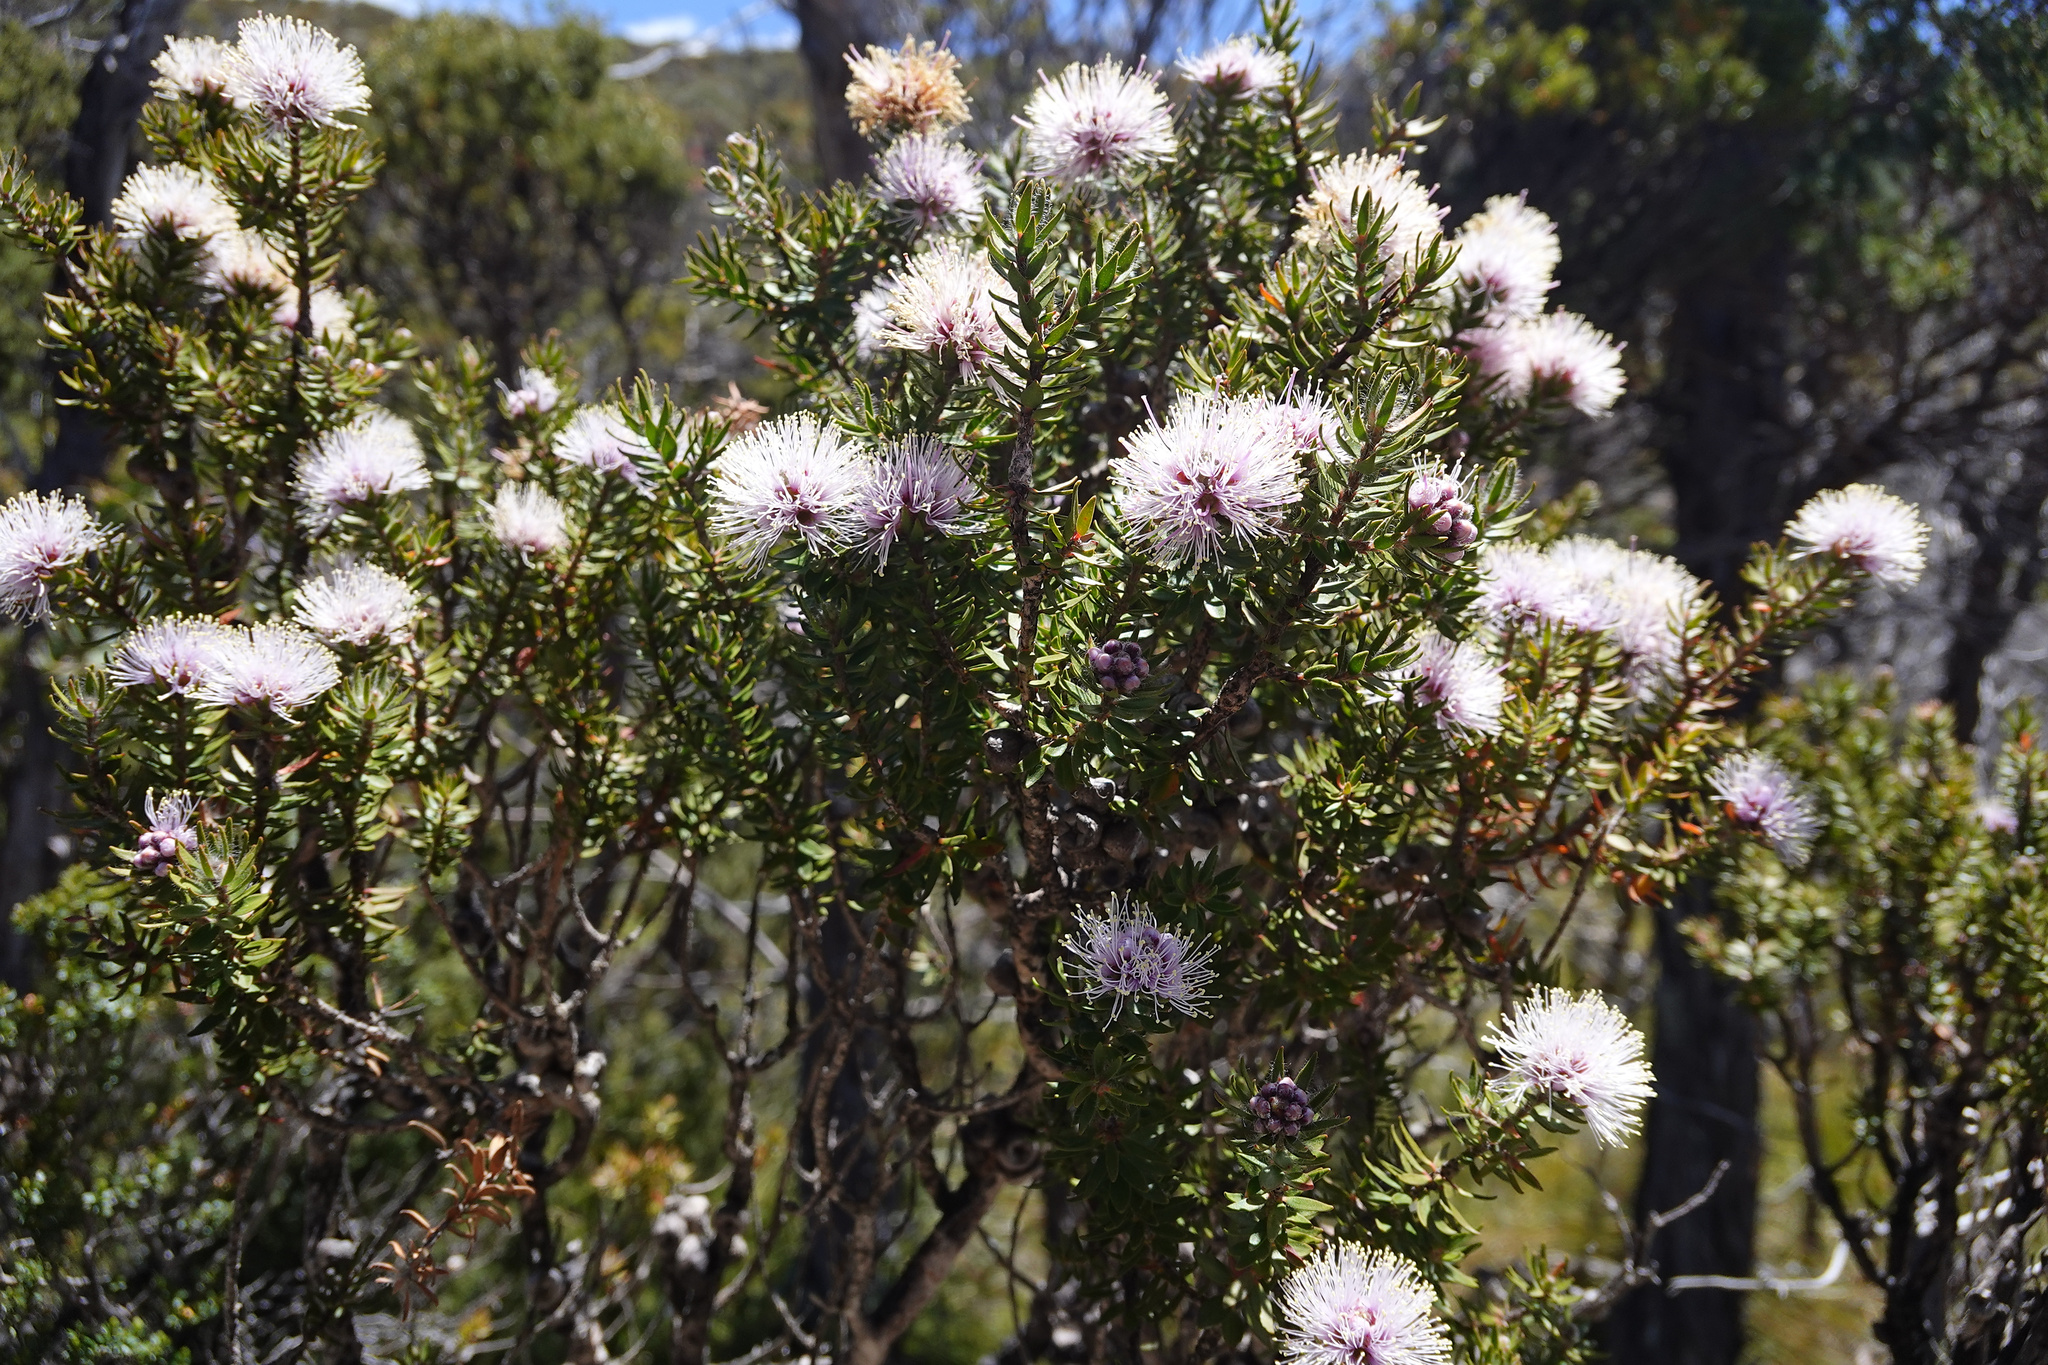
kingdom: Plantae
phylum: Tracheophyta
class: Magnoliopsida
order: Myrtales
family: Myrtaceae
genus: Melaleuca
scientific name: Melaleuca squamea
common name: Swamp melaleuca
